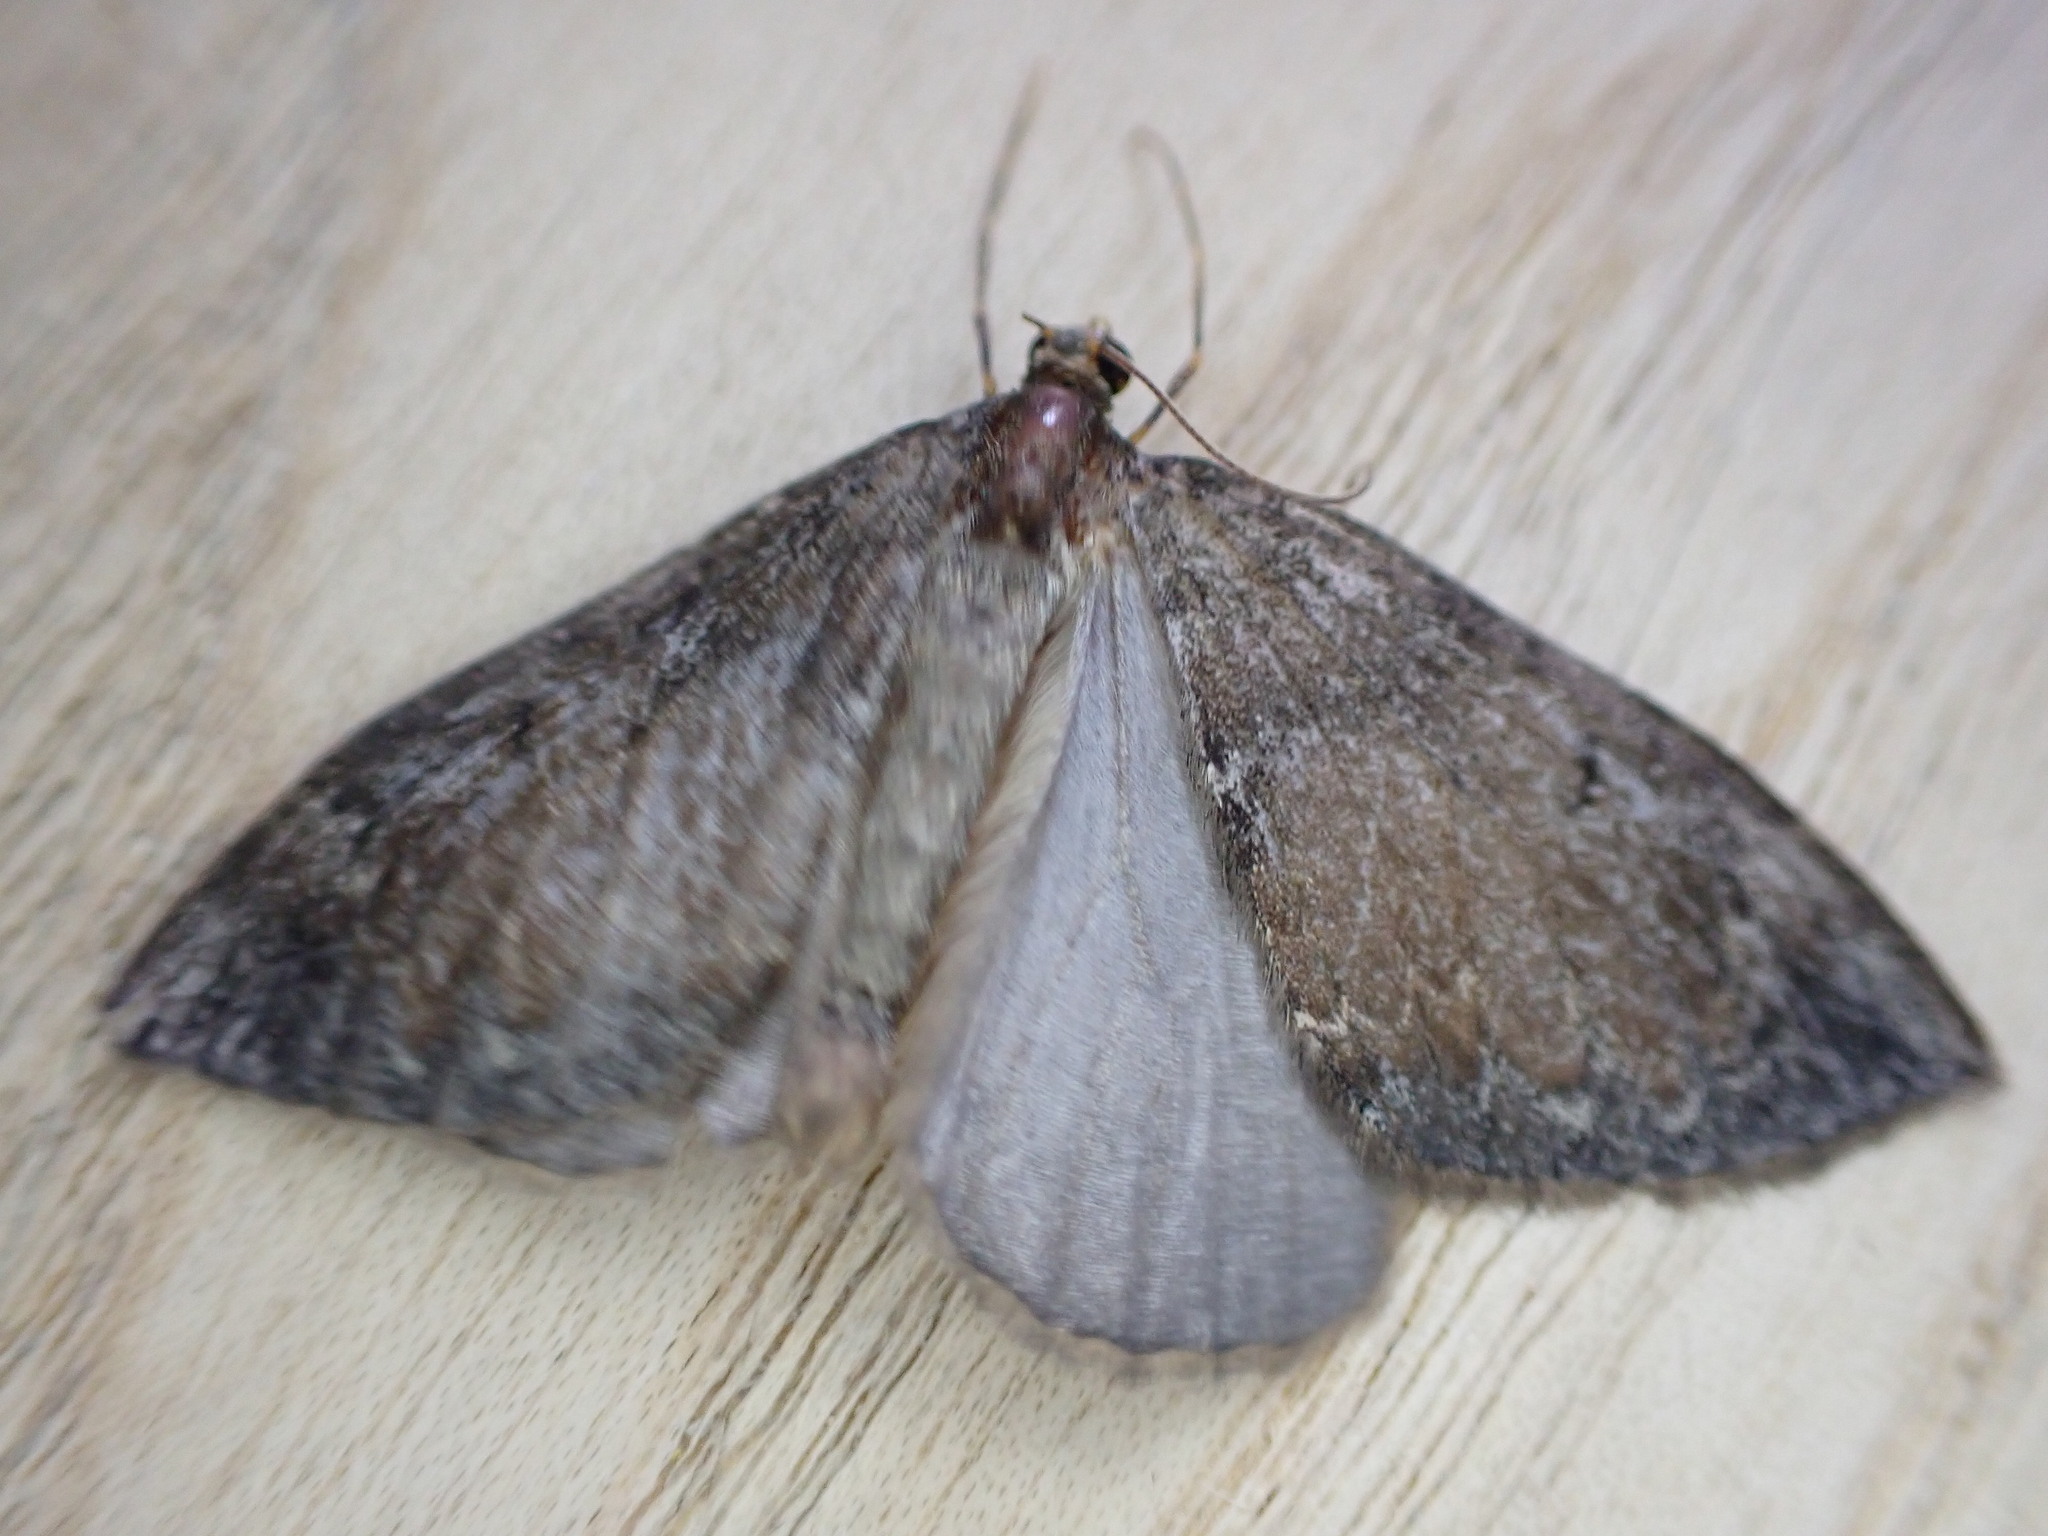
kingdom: Animalia
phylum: Arthropoda
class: Insecta
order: Lepidoptera
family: Geometridae
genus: Dysstroma
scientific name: Dysstroma truncata
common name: Common marbled carpet
